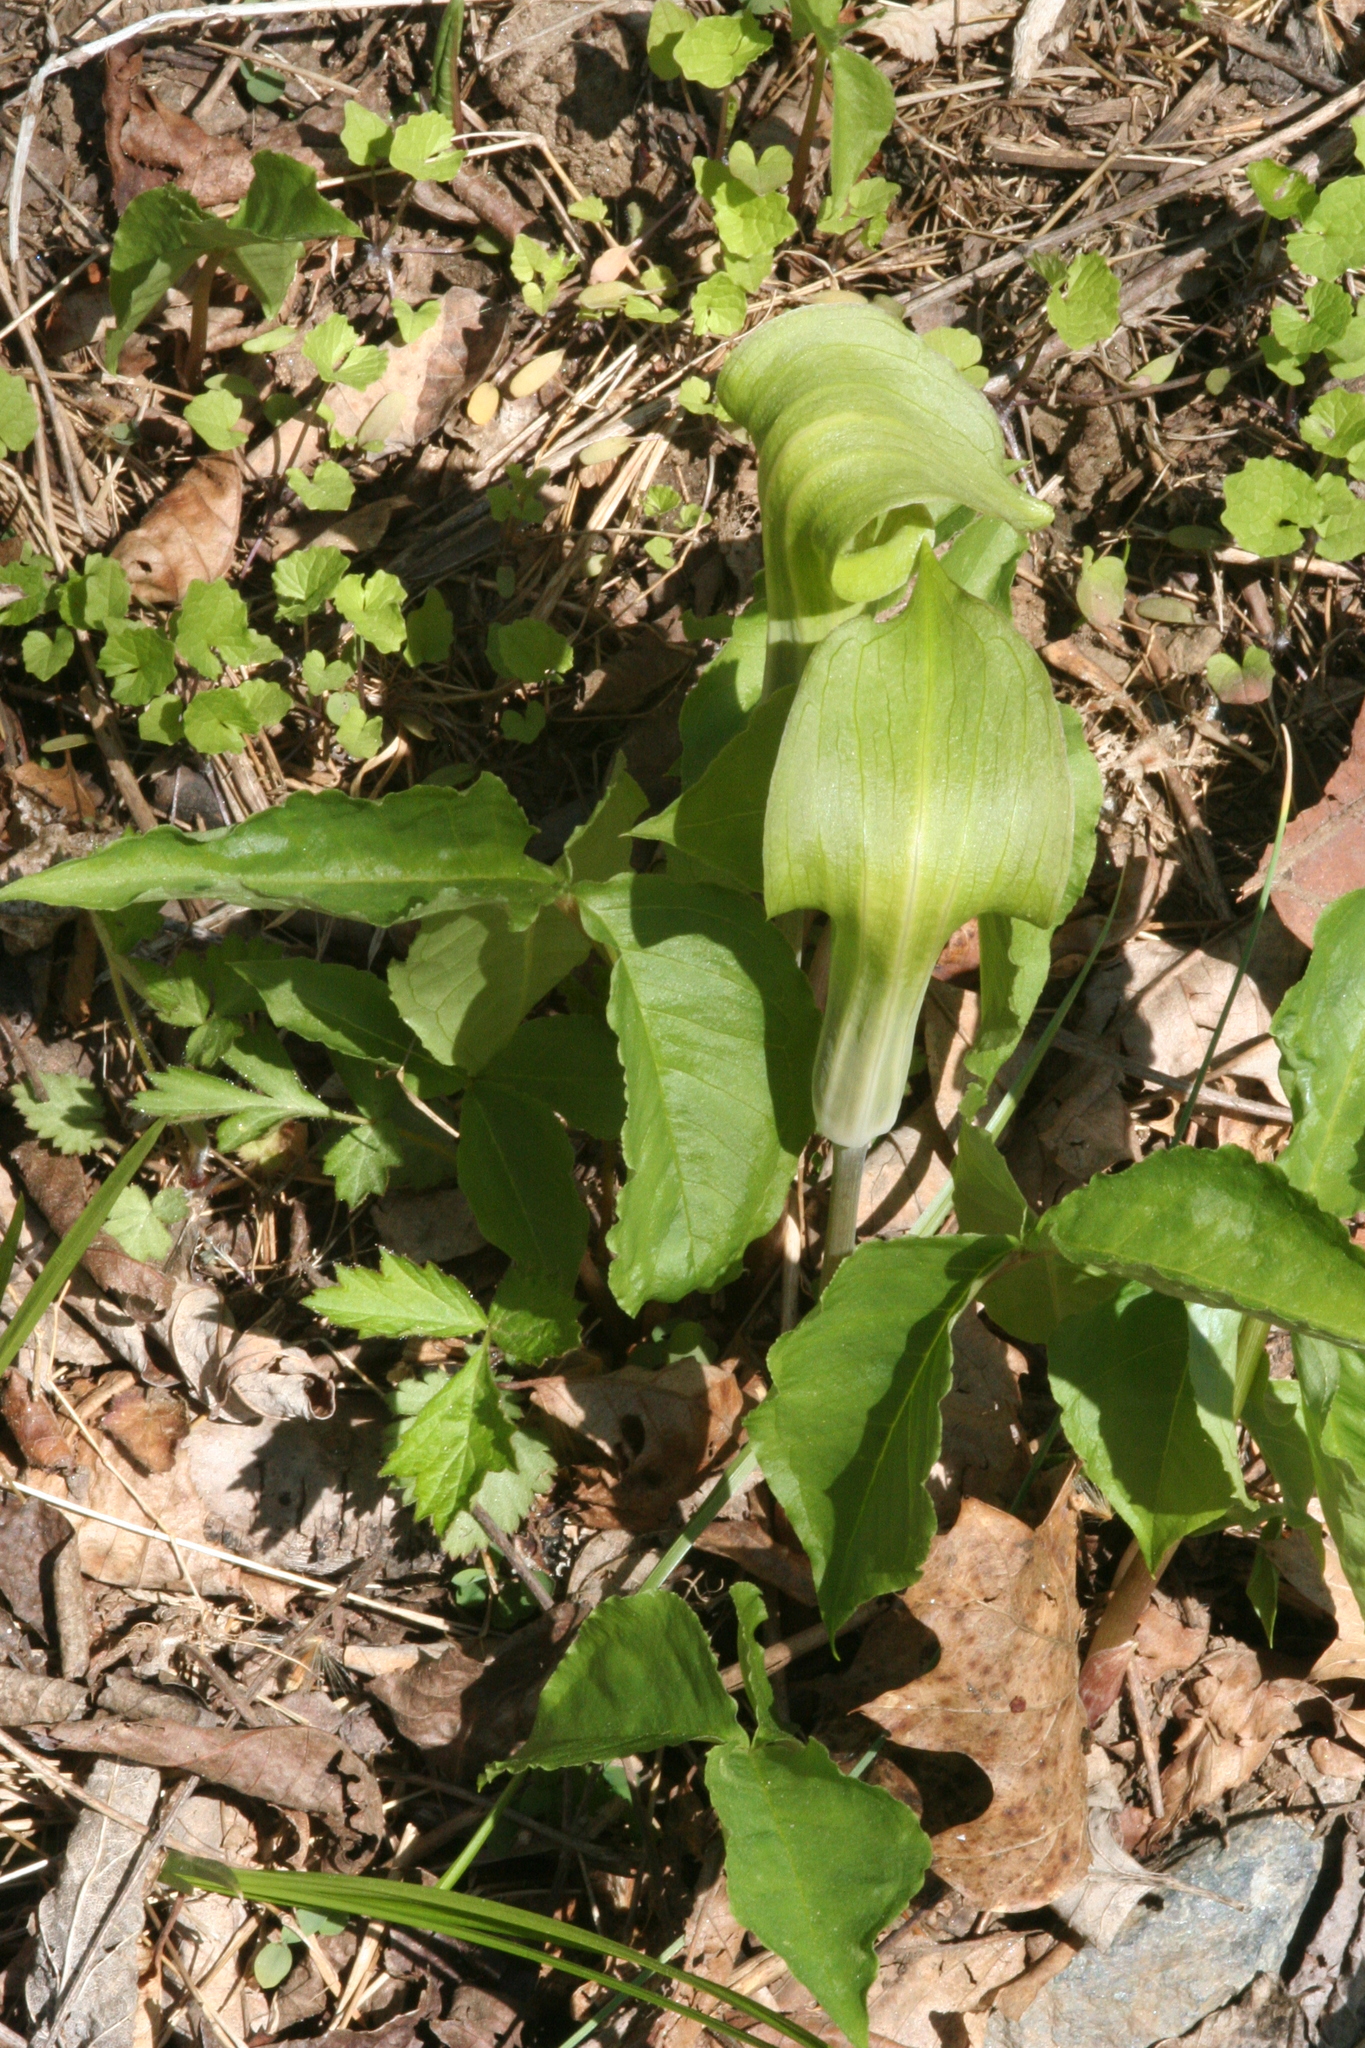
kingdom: Plantae
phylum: Tracheophyta
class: Liliopsida
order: Alismatales
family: Araceae
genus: Arisaema
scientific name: Arisaema triphyllum
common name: Jack-in-the-pulpit
